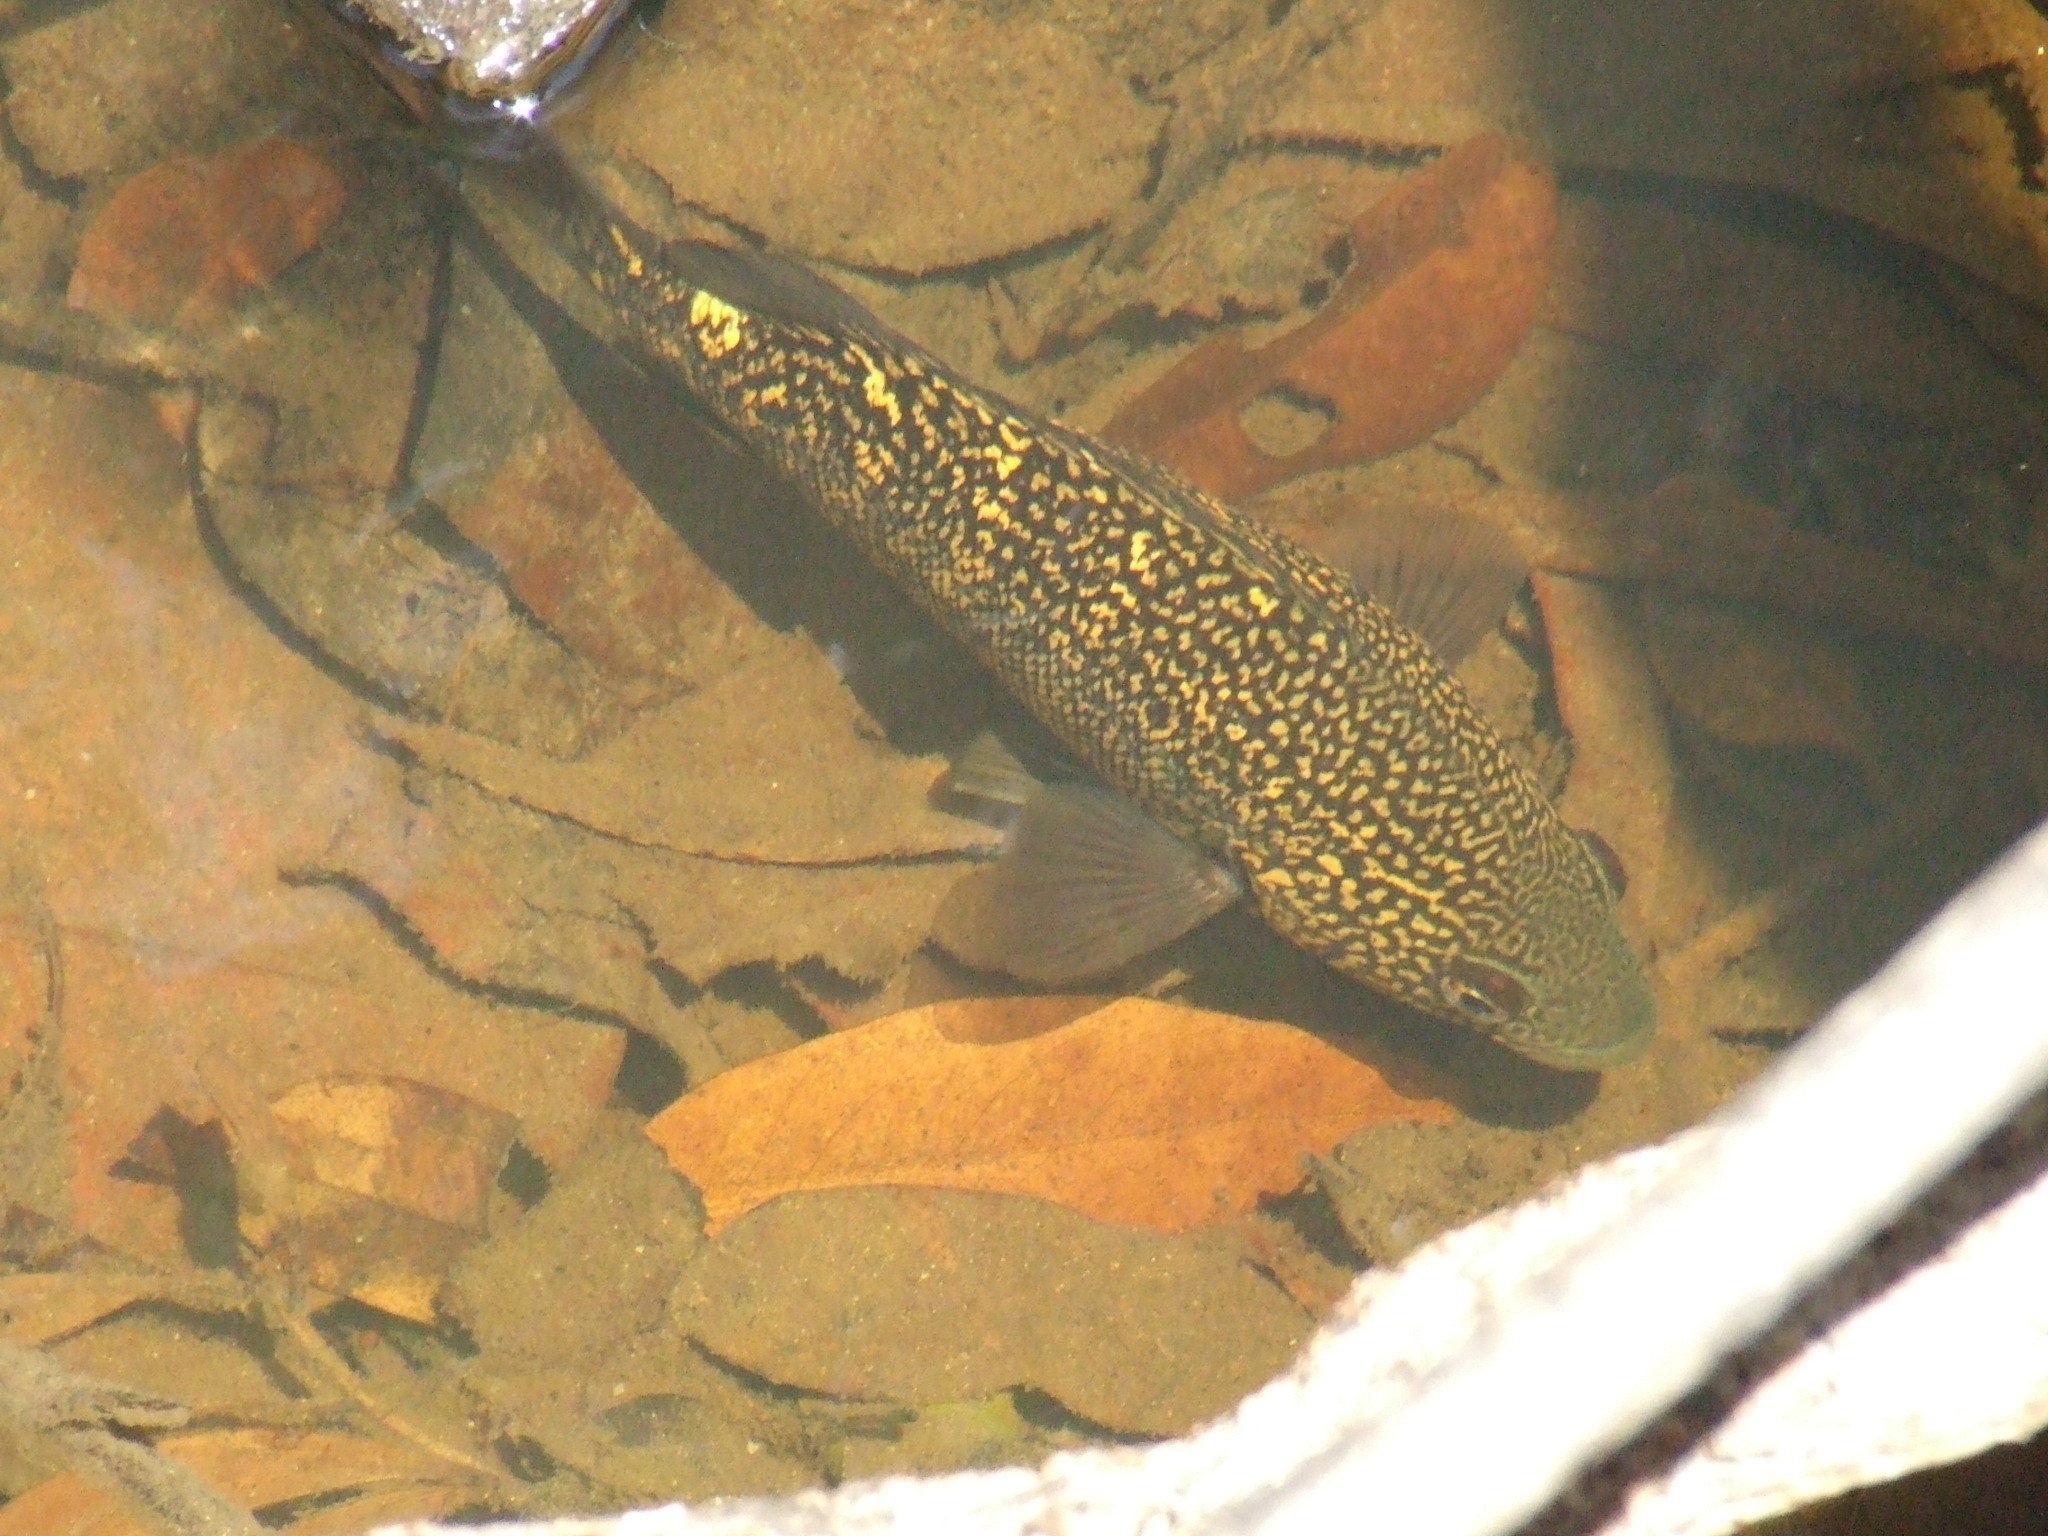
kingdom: Animalia
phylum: Chordata
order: Perciformes
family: Terapontidae
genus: Hephaestus
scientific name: Hephaestus carbo
